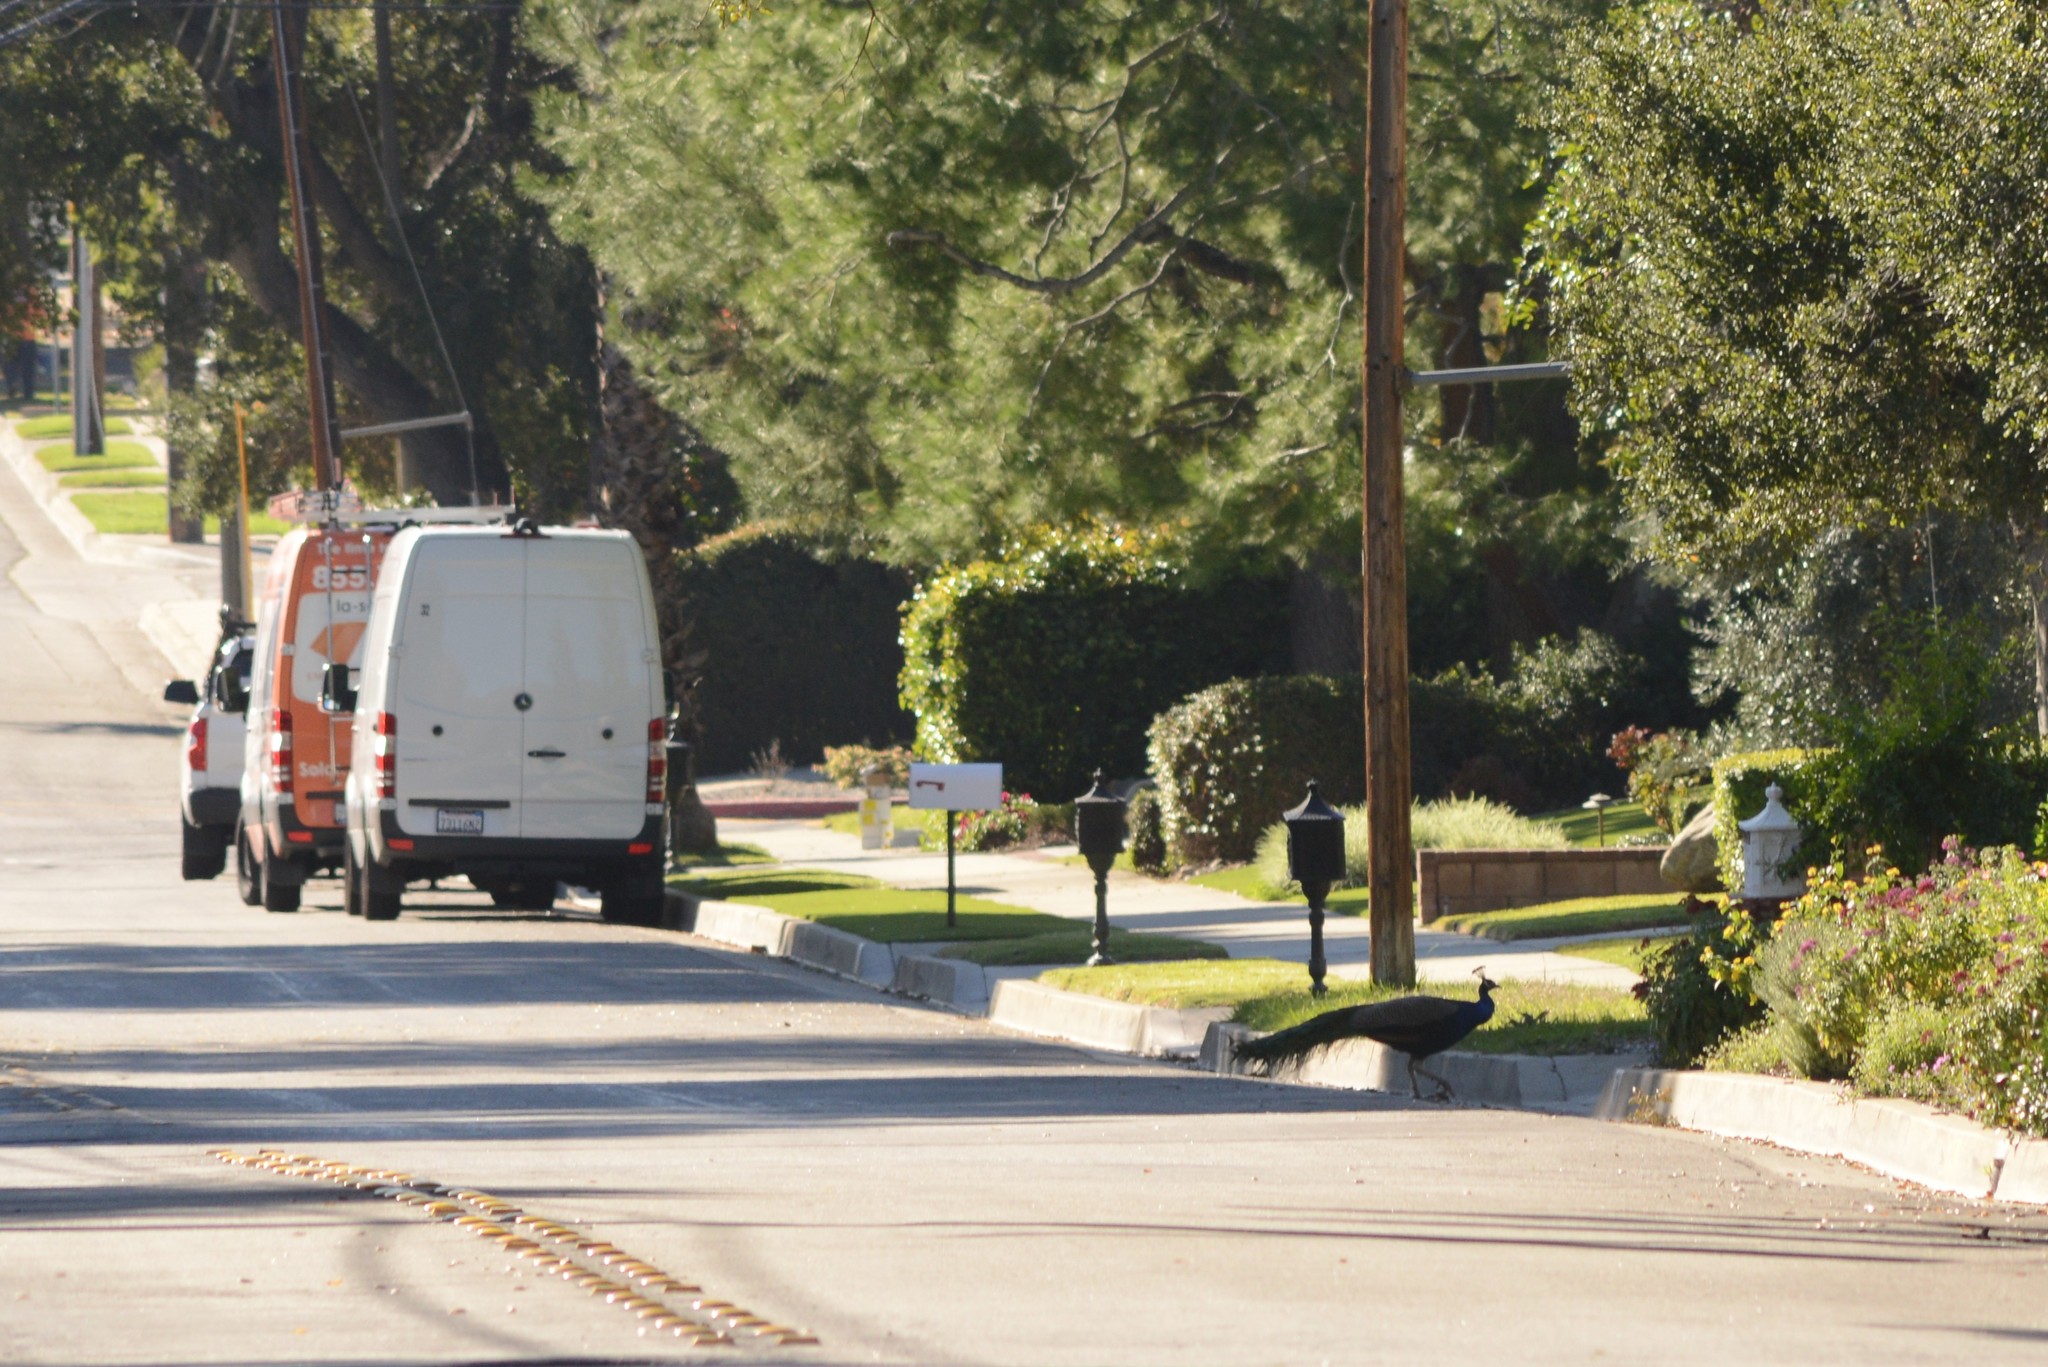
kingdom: Animalia
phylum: Chordata
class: Aves
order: Galliformes
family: Phasianidae
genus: Pavo
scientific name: Pavo cristatus
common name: Indian peafowl
